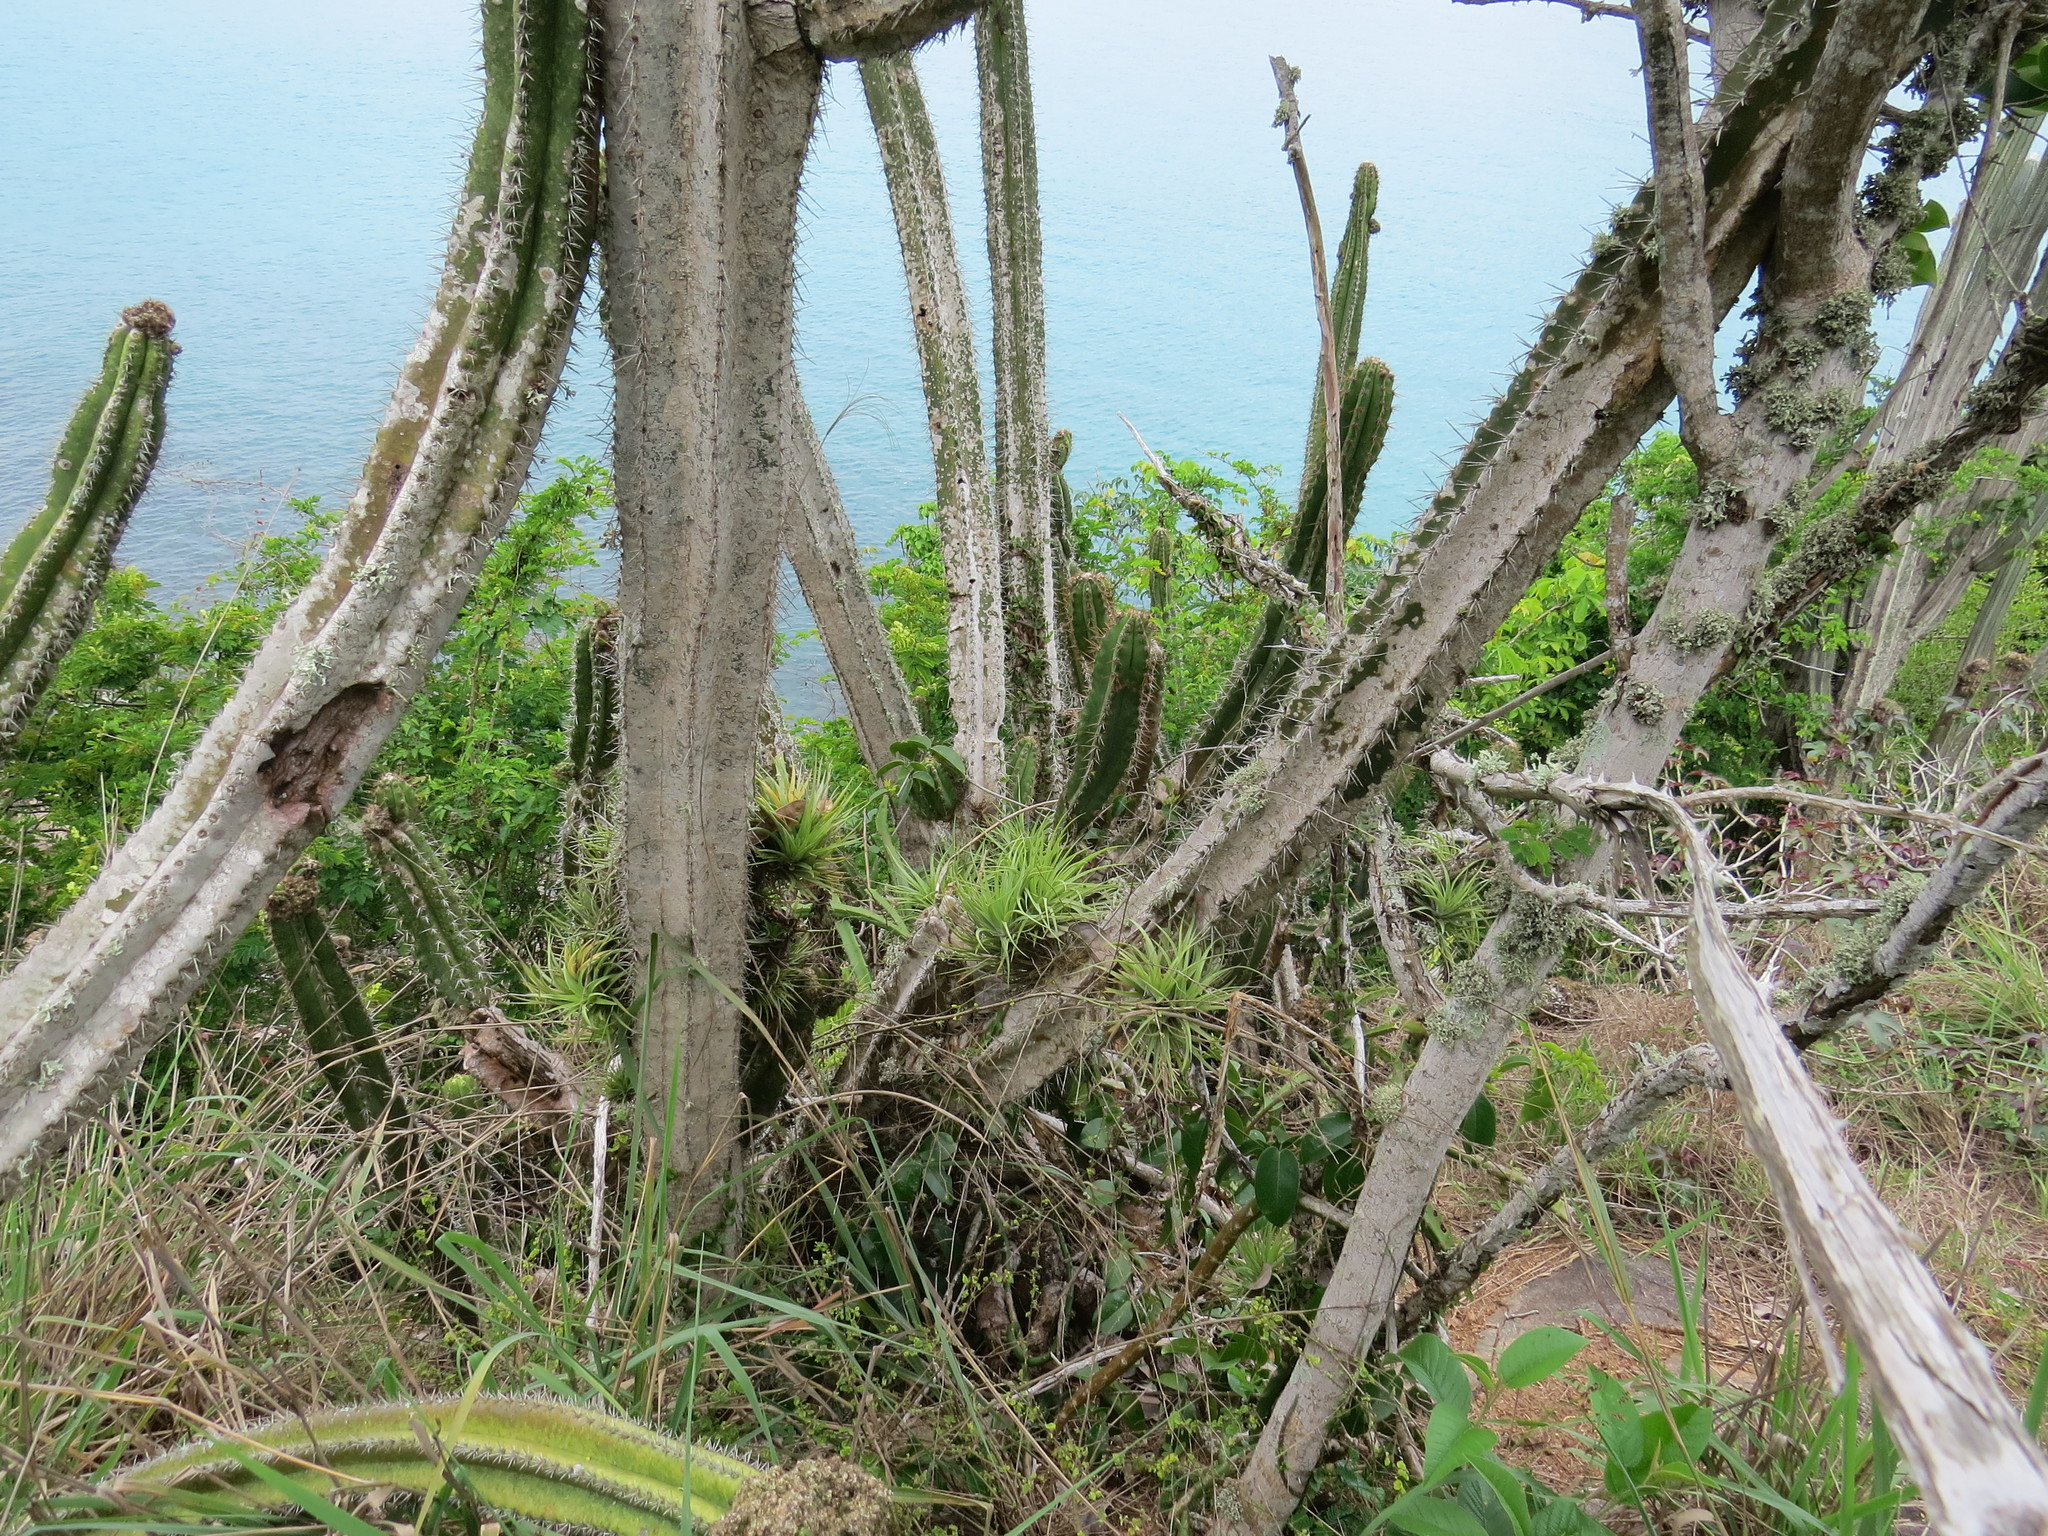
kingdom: Plantae
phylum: Tracheophyta
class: Magnoliopsida
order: Caryophyllales
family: Cactaceae
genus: Pilosocereus
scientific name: Pilosocereus arrabidae
